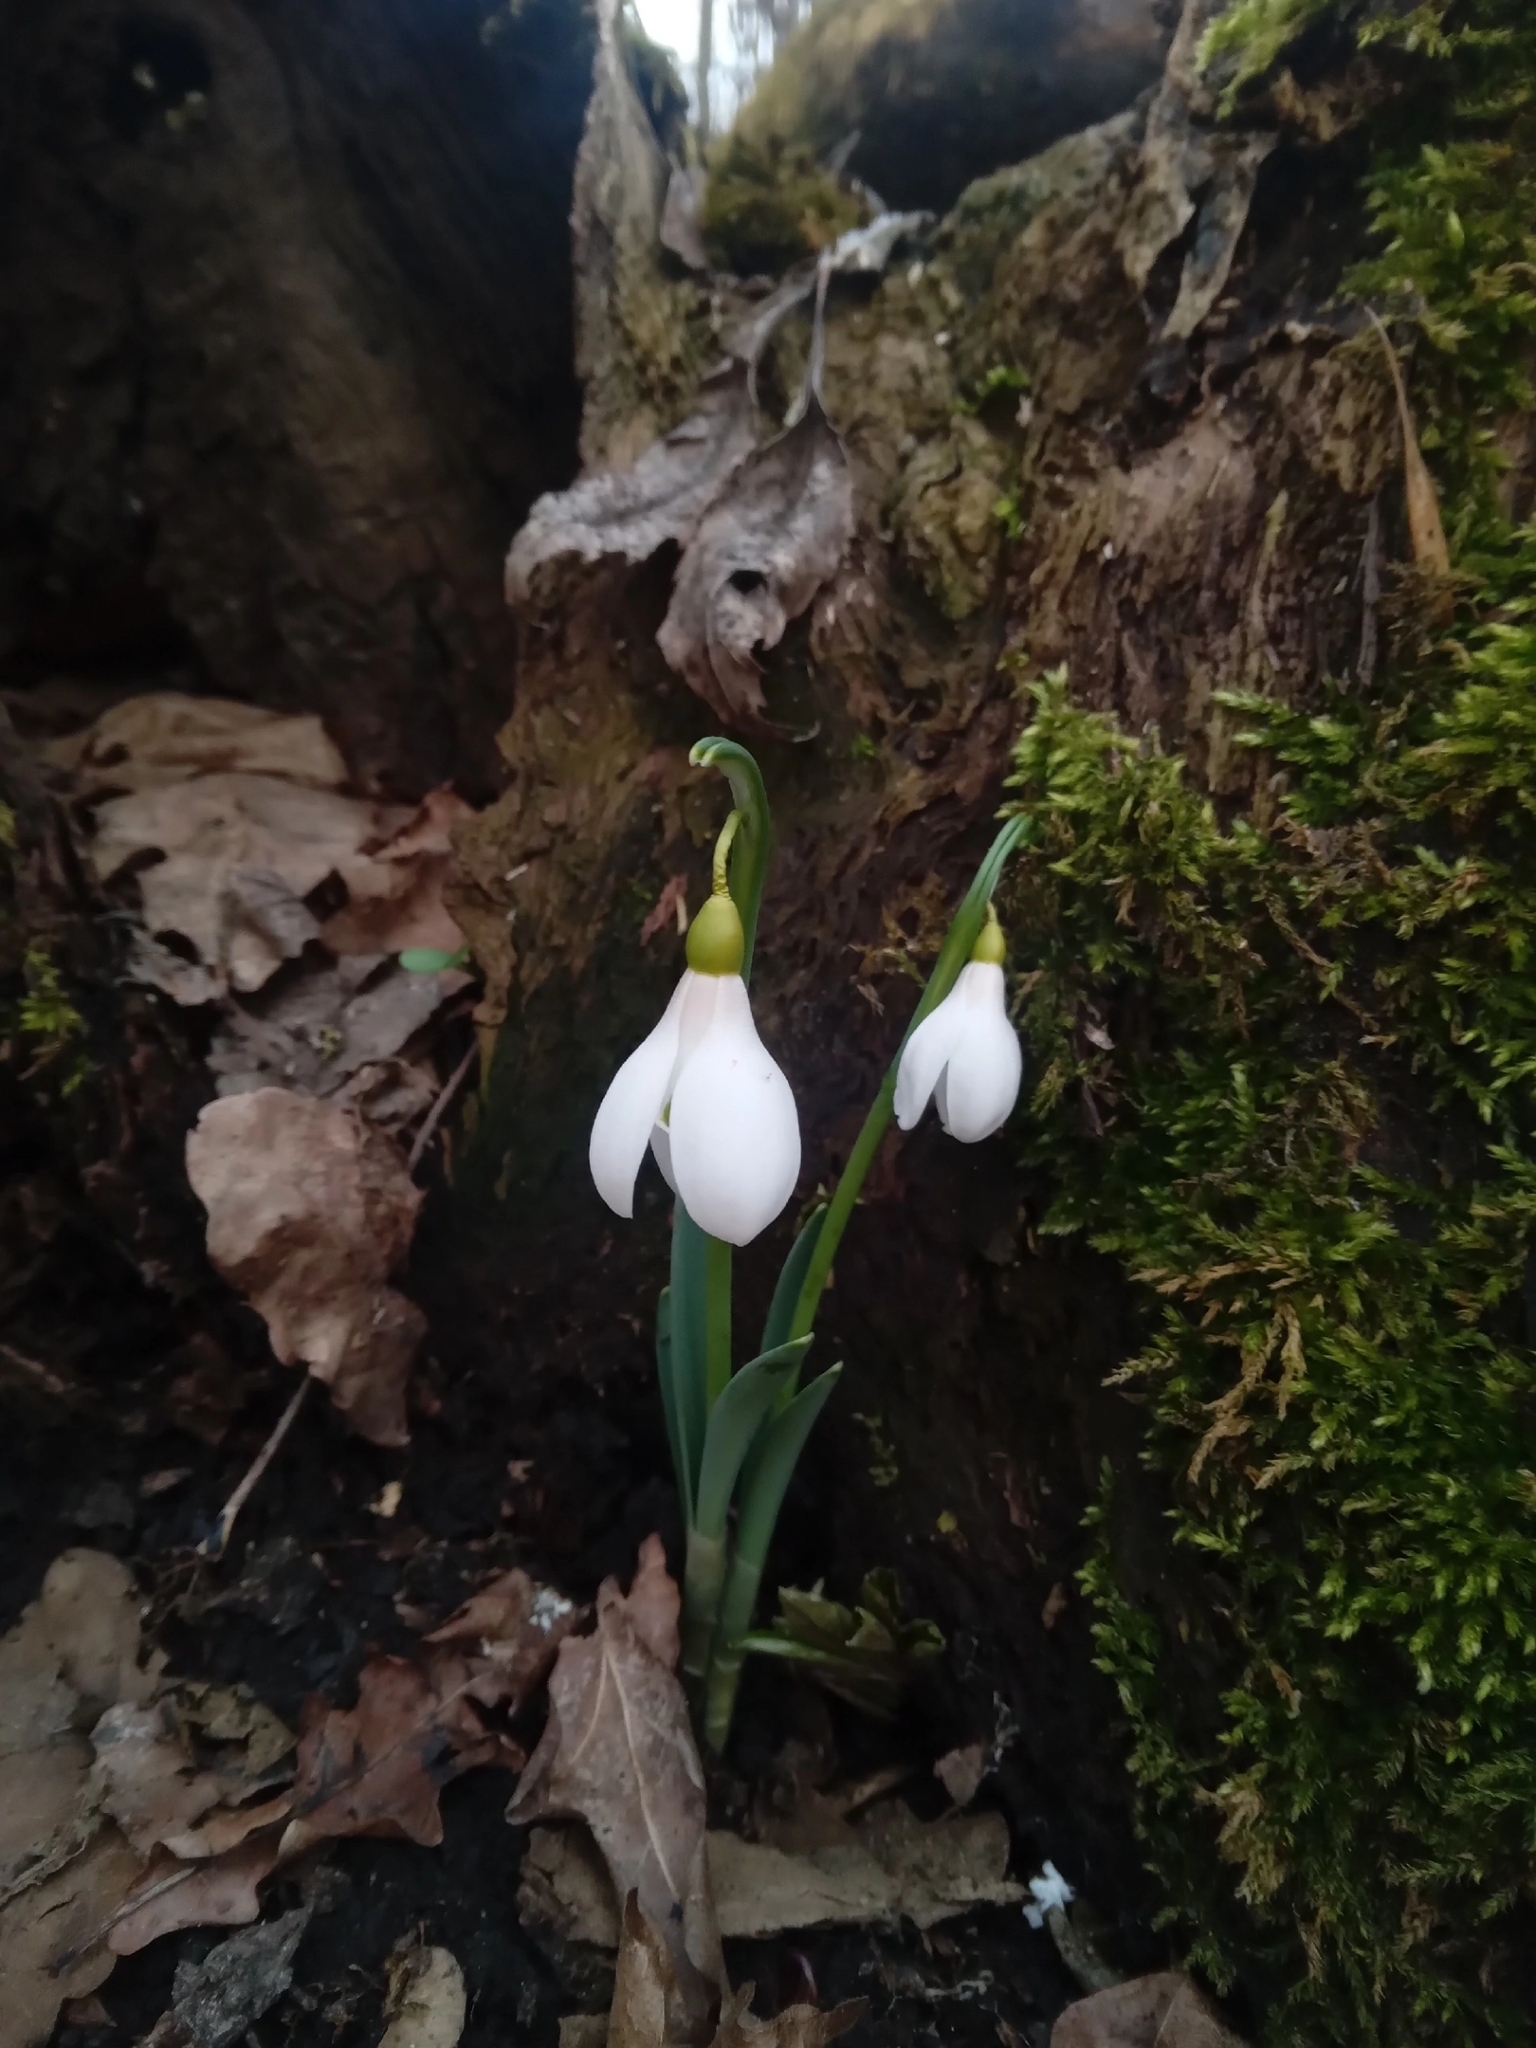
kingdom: Plantae
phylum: Tracheophyta
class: Liliopsida
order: Asparagales
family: Amaryllidaceae
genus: Galanthus
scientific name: Galanthus alpinus
